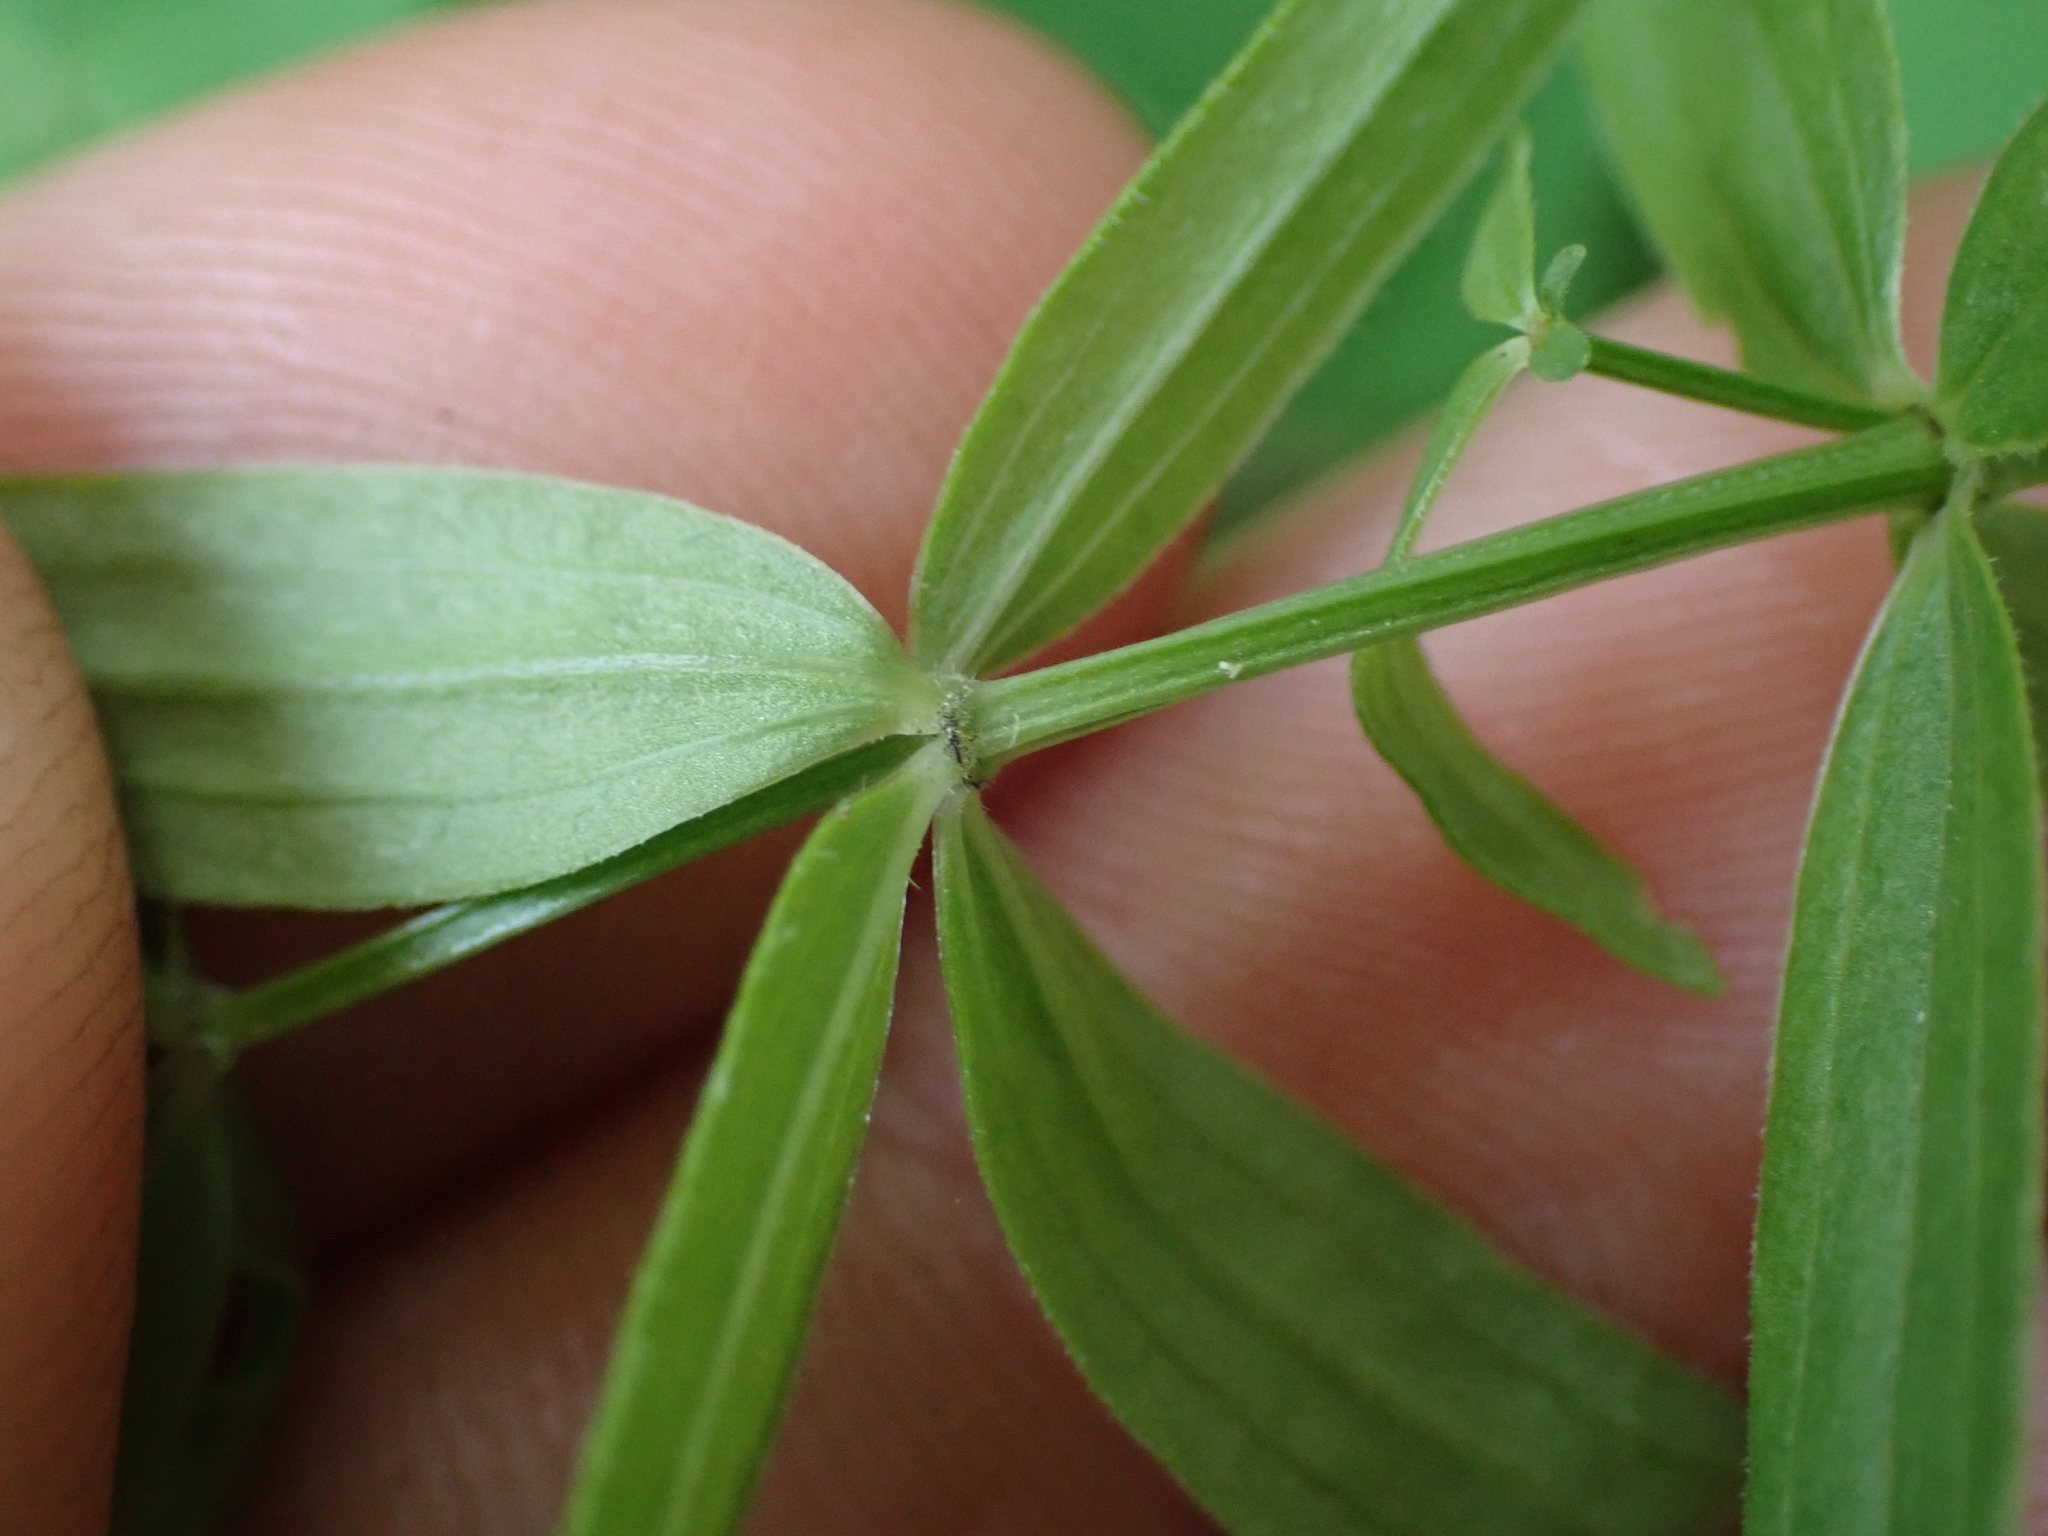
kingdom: Plantae
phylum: Tracheophyta
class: Magnoliopsida
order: Gentianales
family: Rubiaceae
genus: Galium
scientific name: Galium boreale
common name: Northern bedstraw
